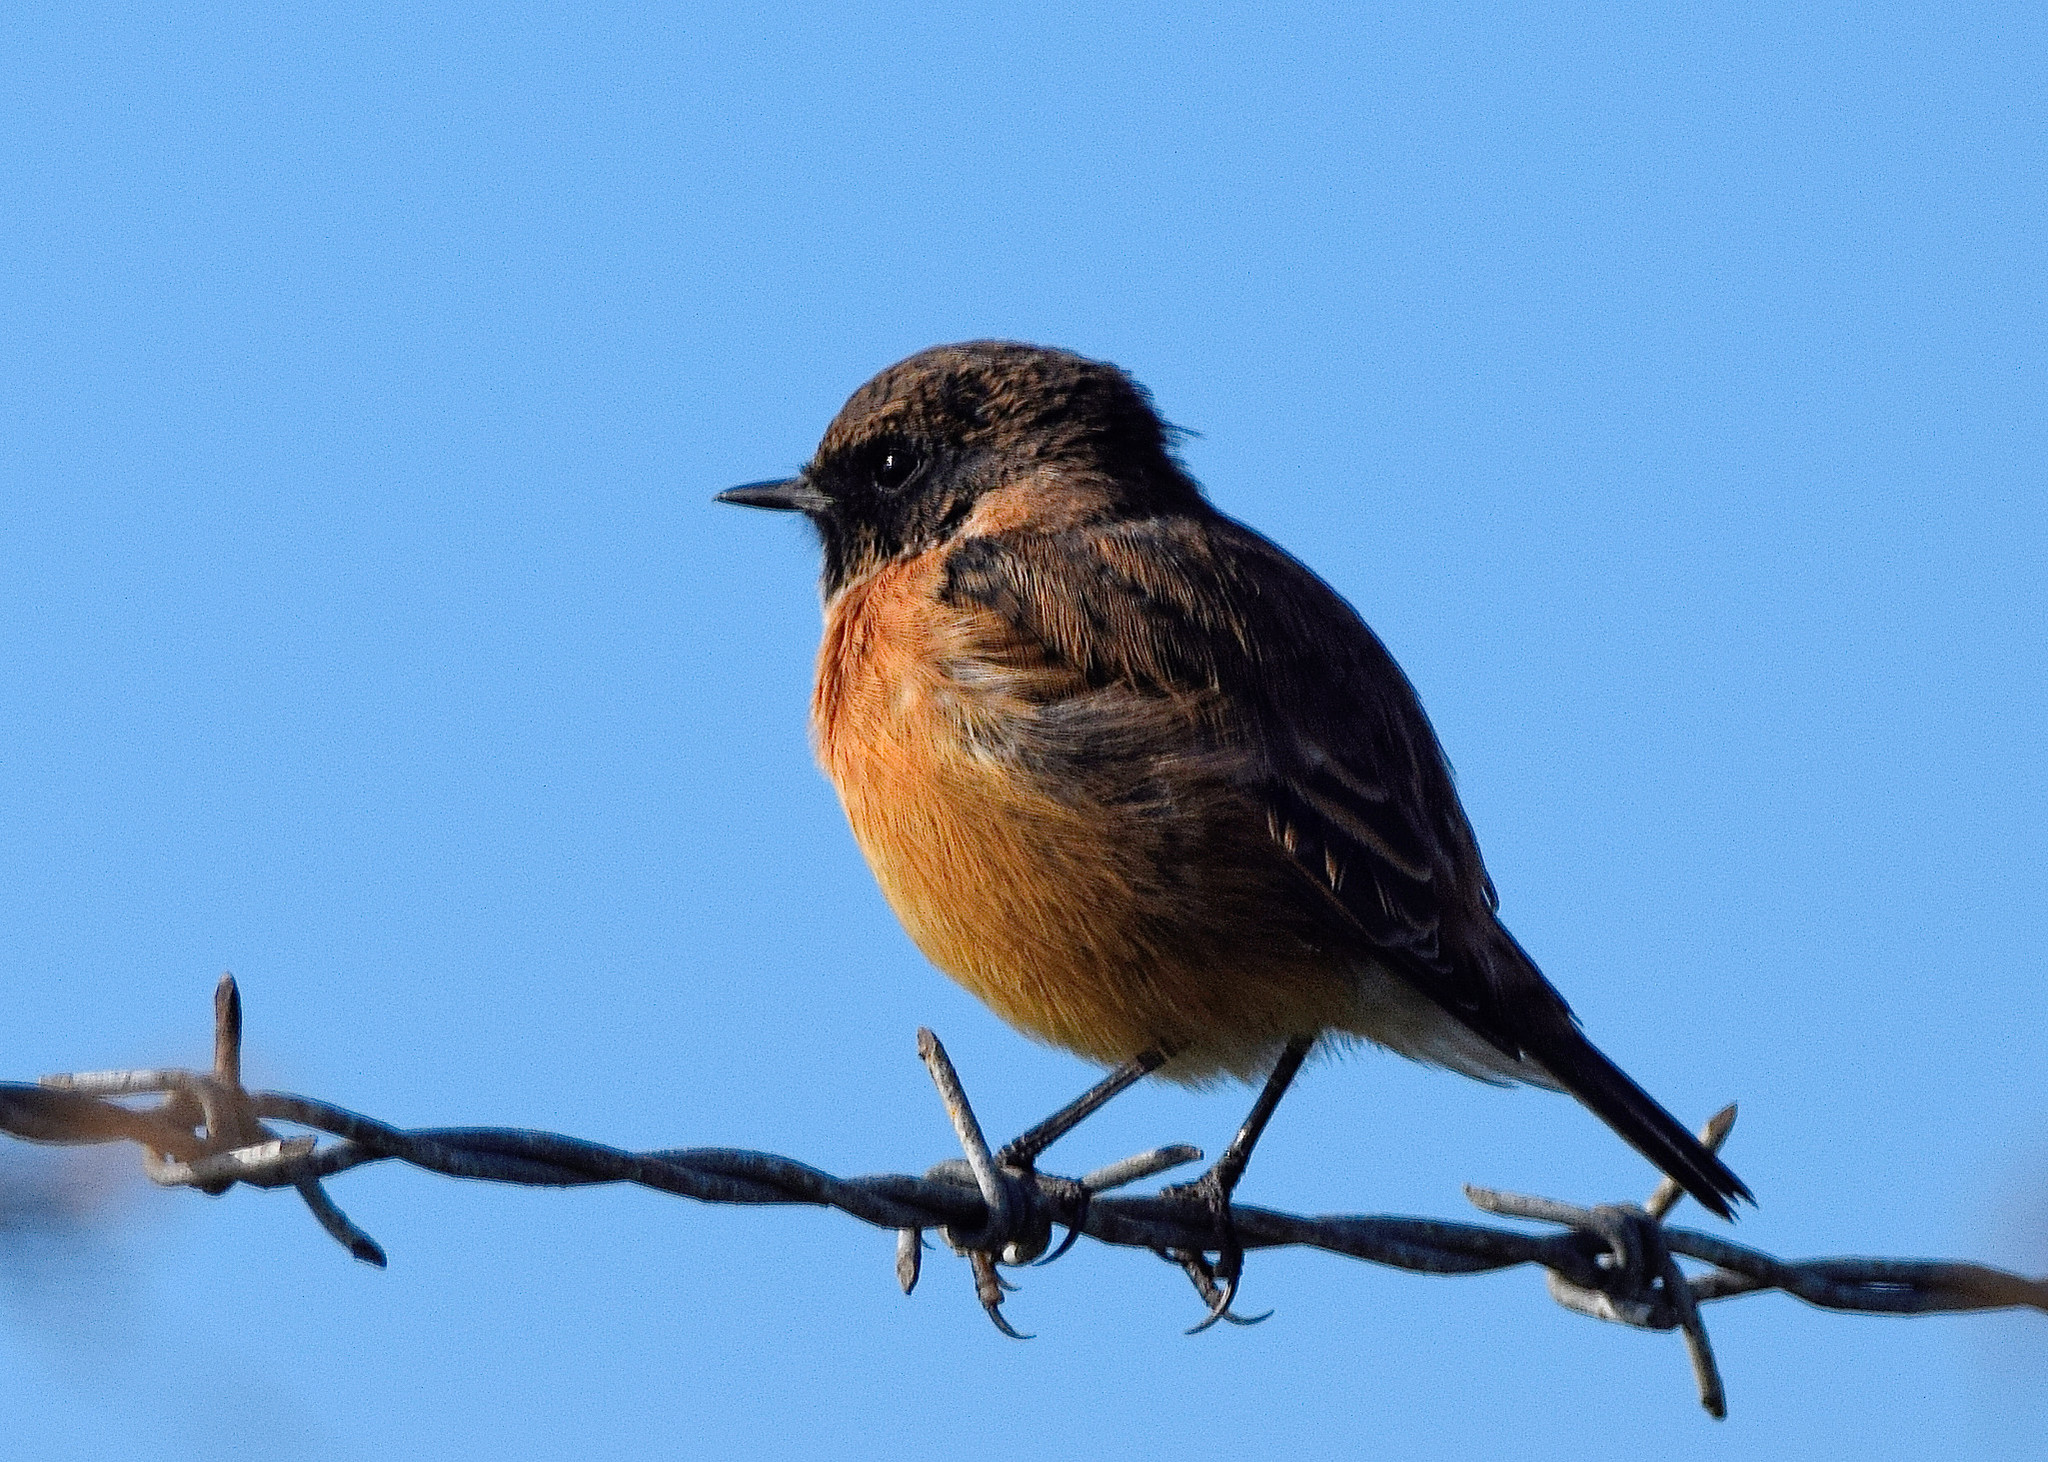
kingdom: Animalia
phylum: Chordata
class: Aves
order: Passeriformes
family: Muscicapidae
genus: Saxicola
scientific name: Saxicola rubicola
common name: European stonechat
